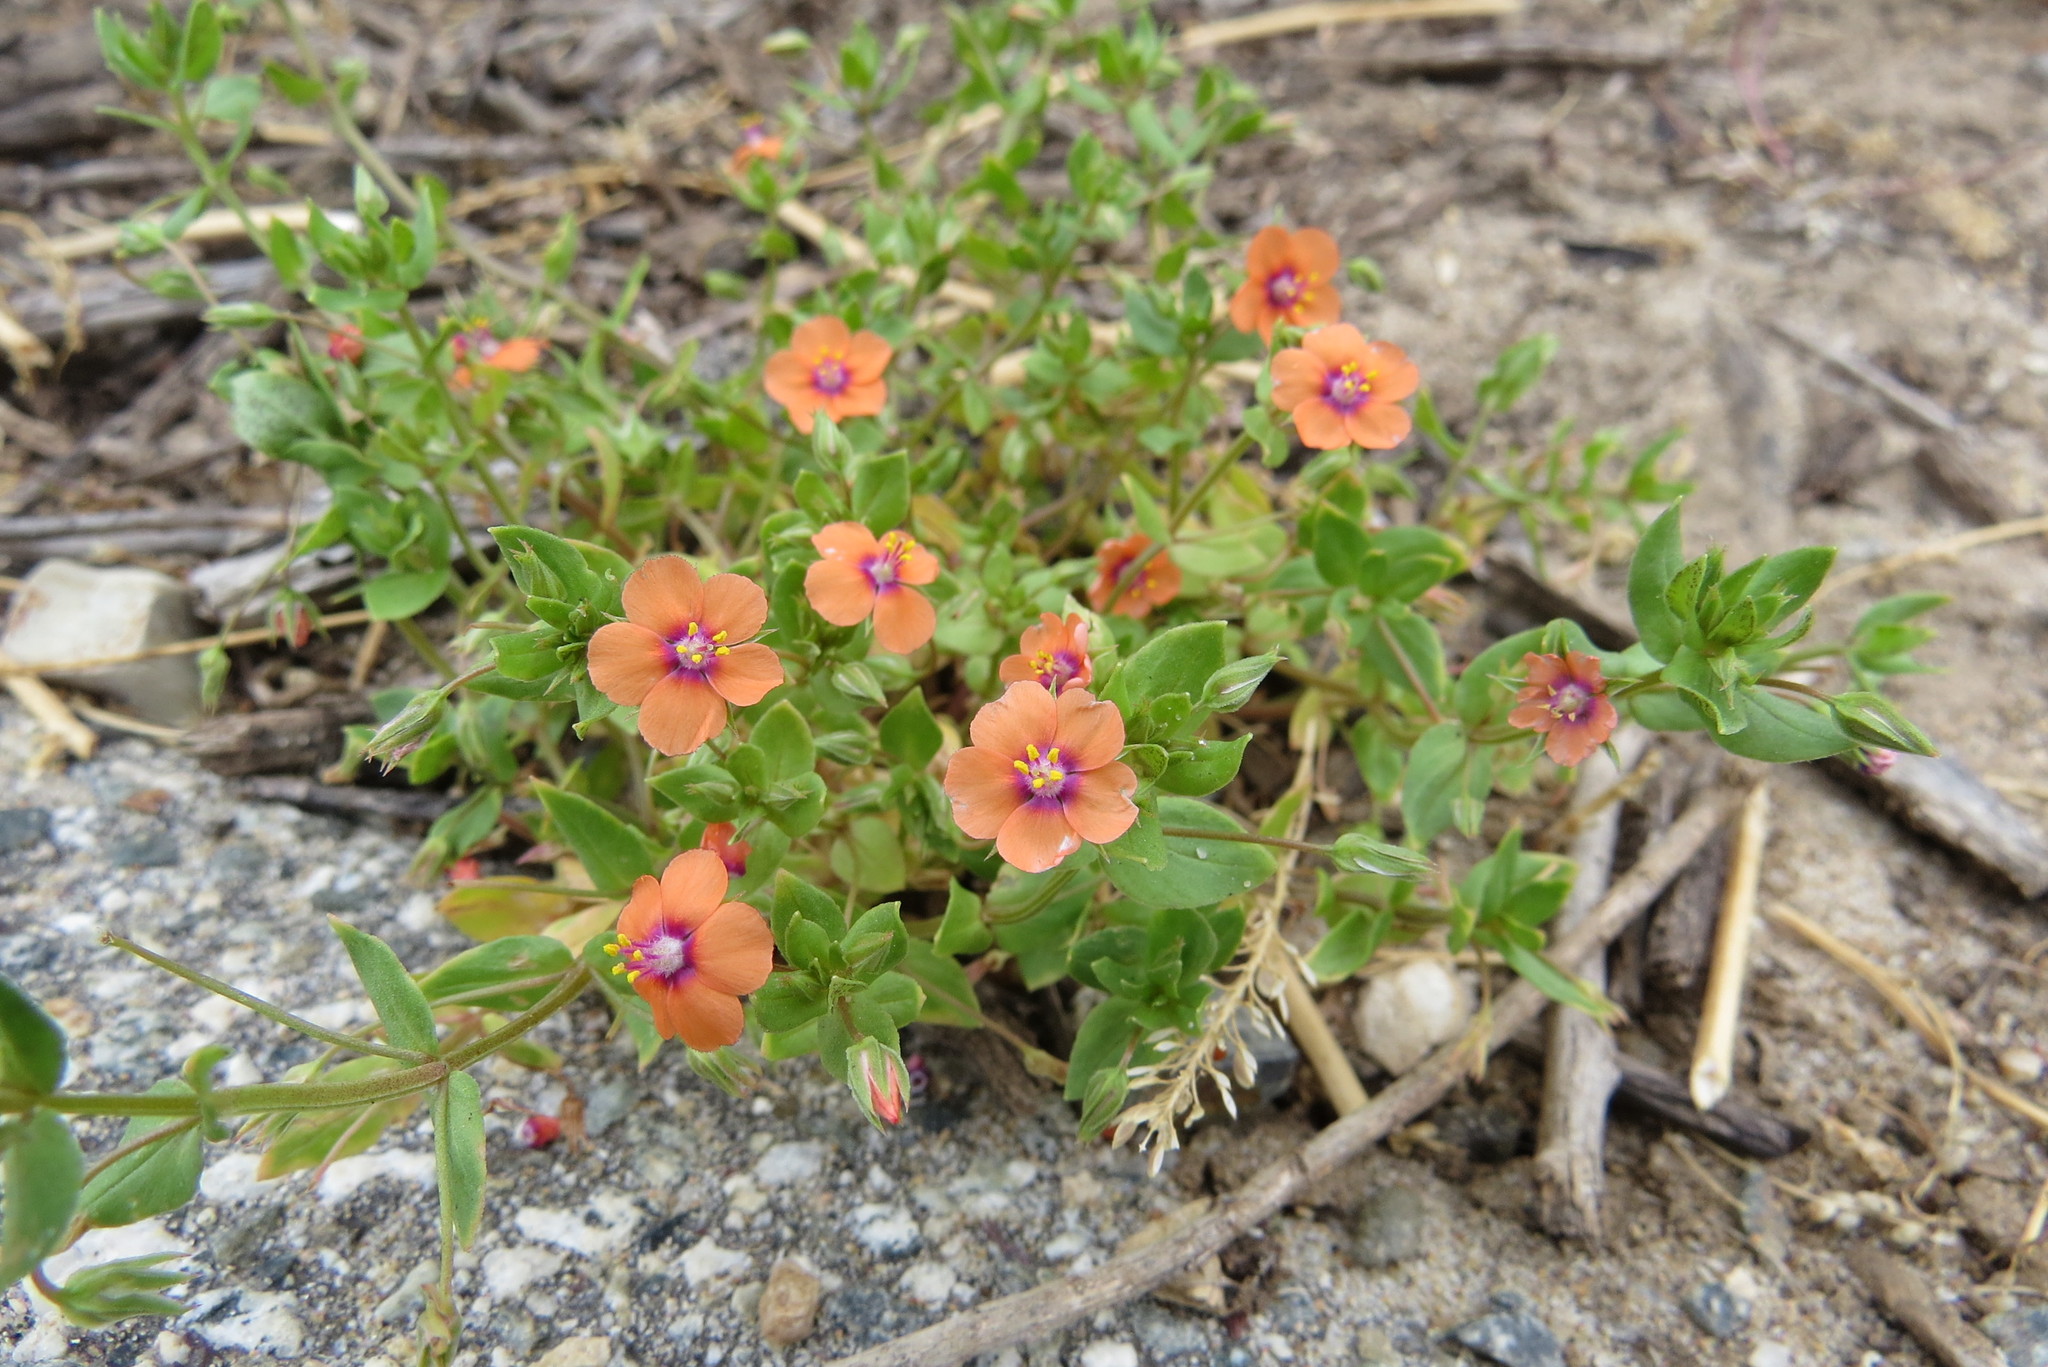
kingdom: Plantae
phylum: Tracheophyta
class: Magnoliopsida
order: Ericales
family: Primulaceae
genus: Lysimachia
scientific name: Lysimachia arvensis
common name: Scarlet pimpernel
